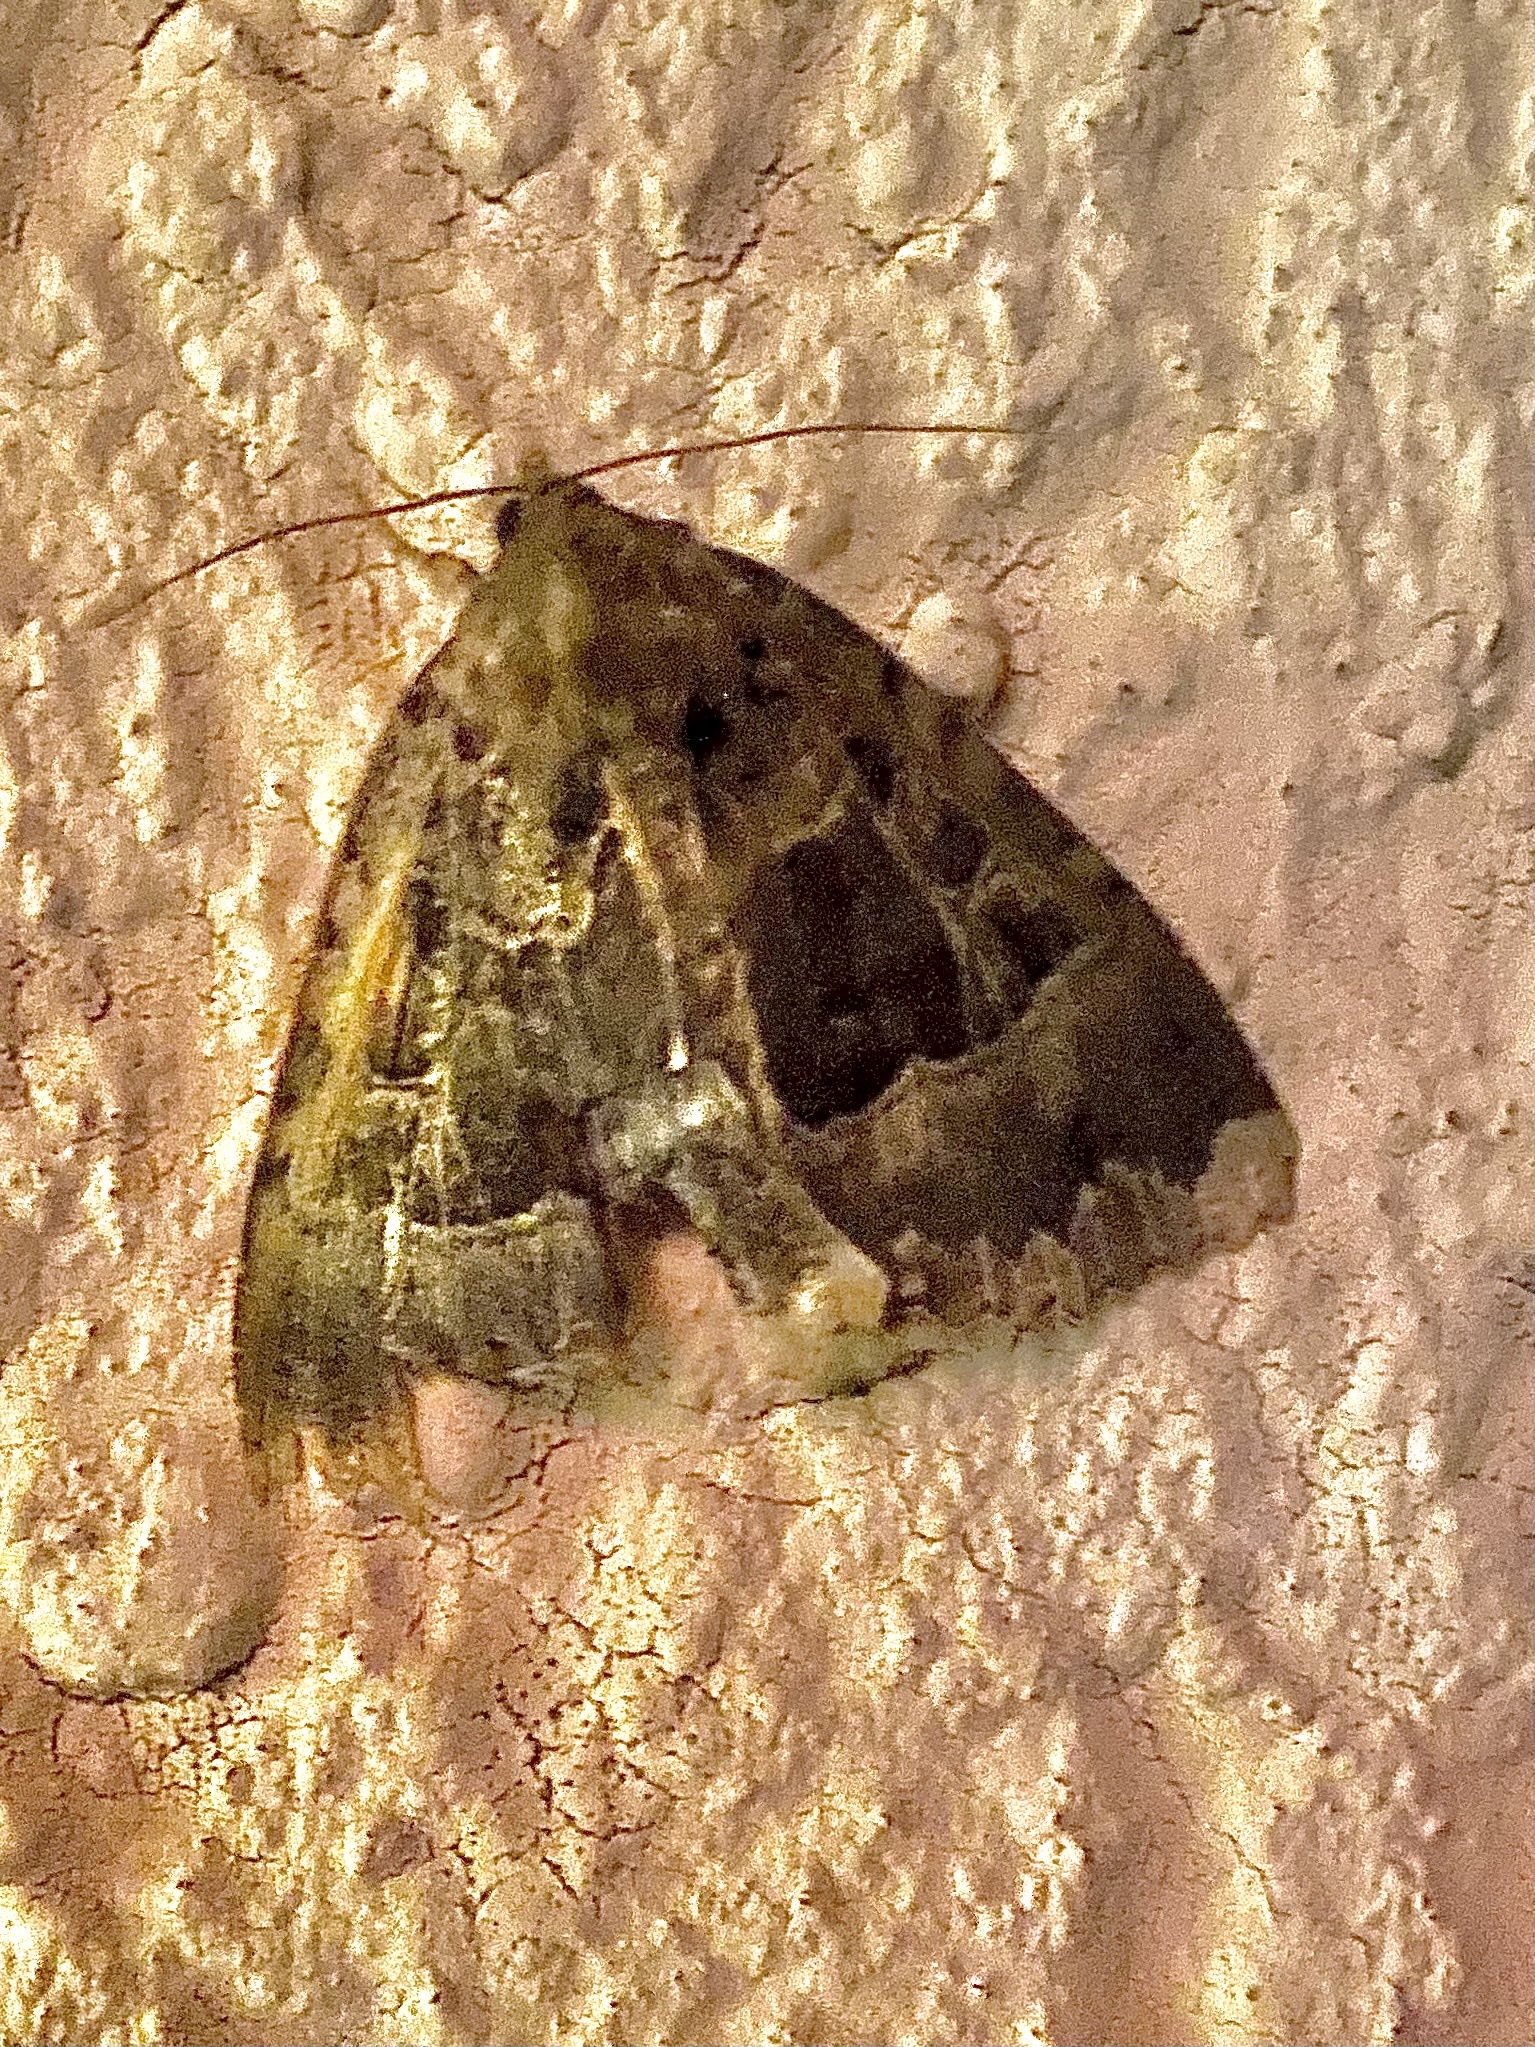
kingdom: Animalia
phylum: Arthropoda
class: Insecta
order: Lepidoptera
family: Noctuidae
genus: Mormo
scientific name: Mormo maura
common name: Old lady
